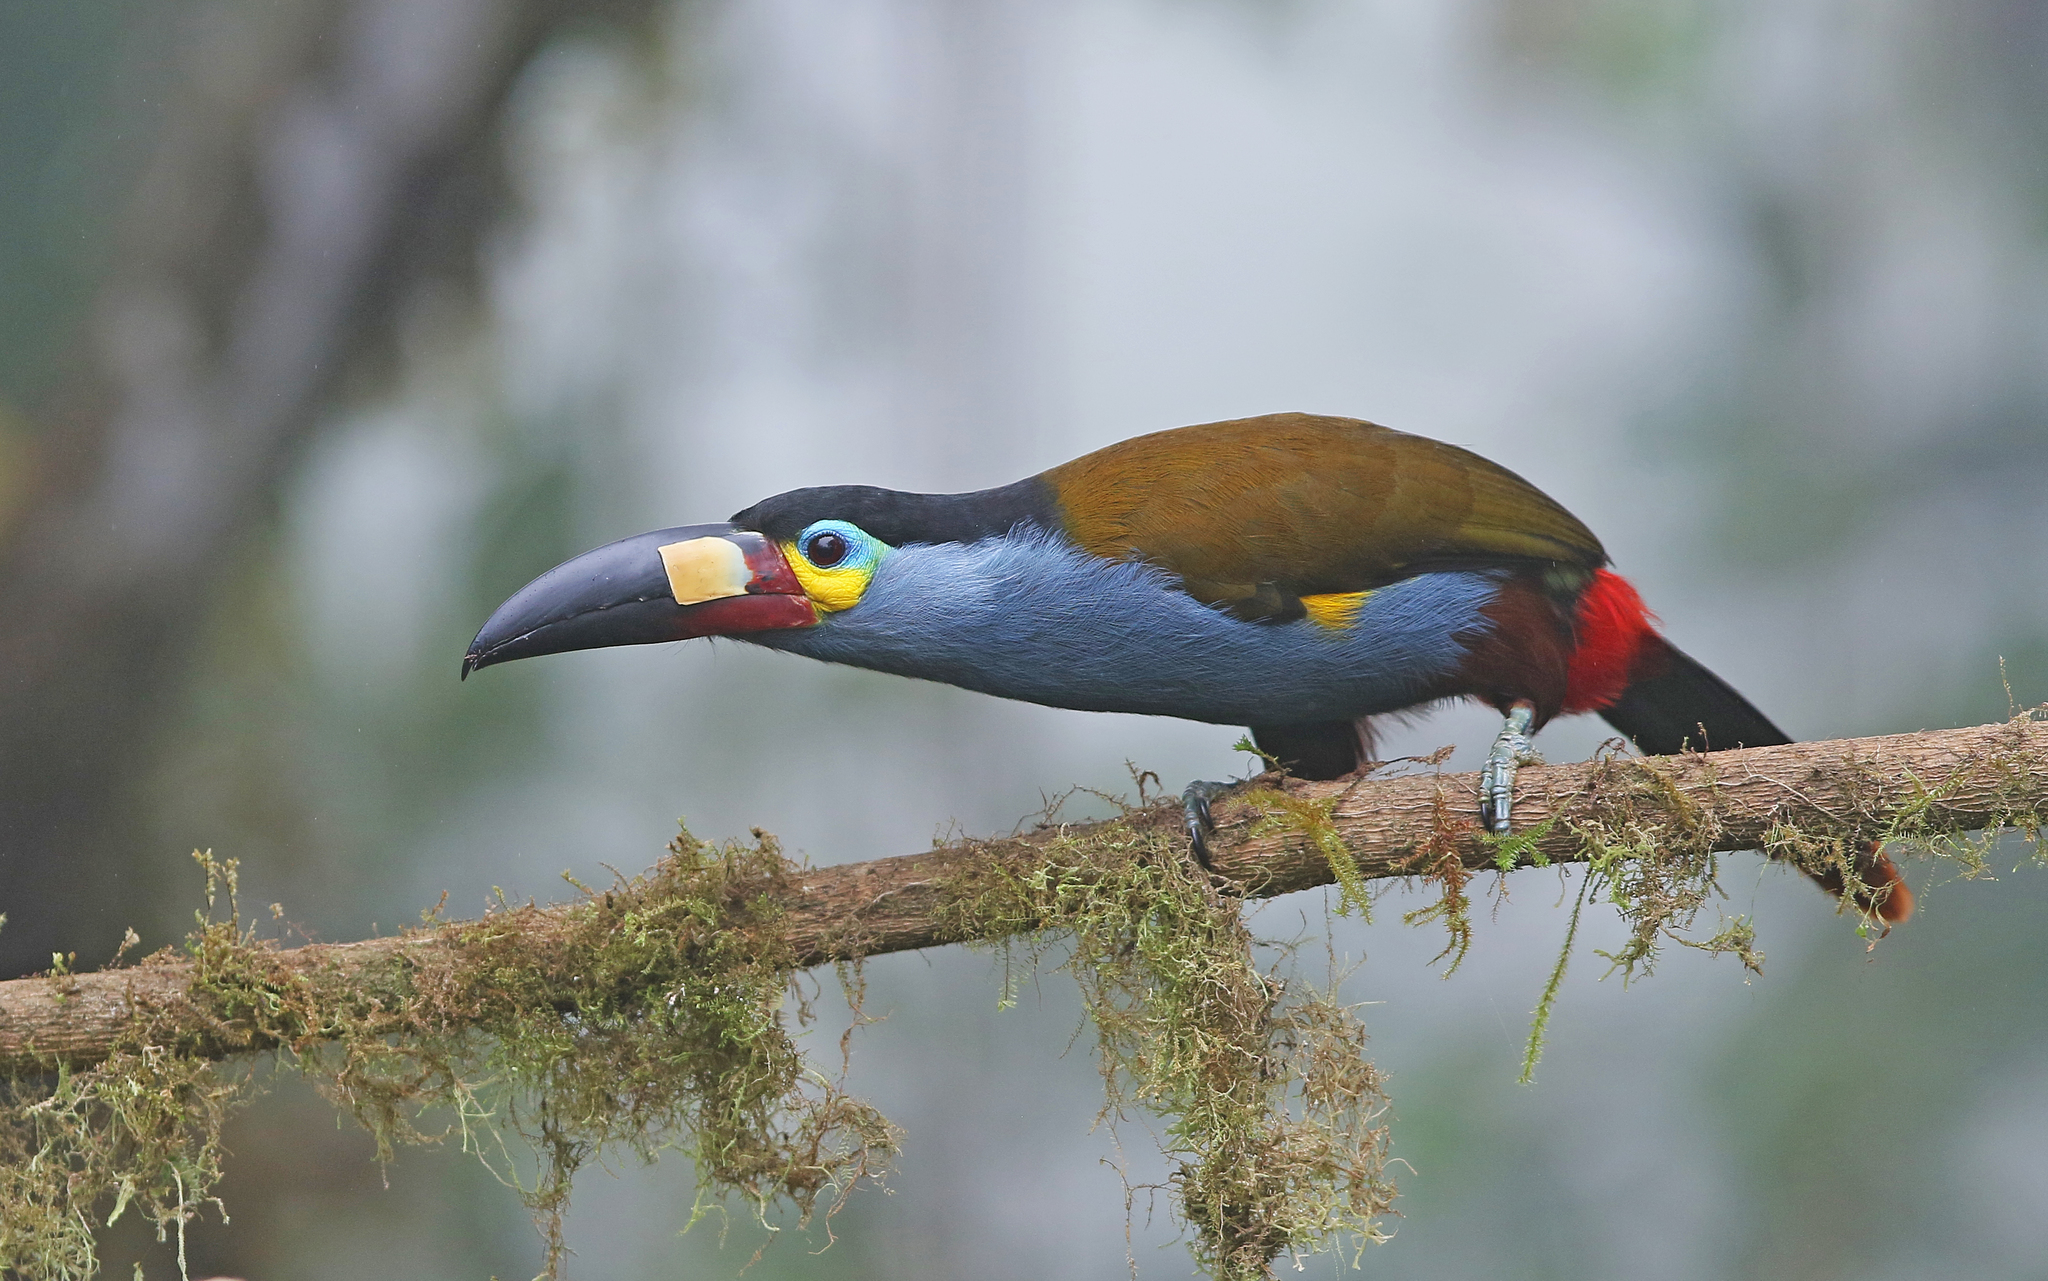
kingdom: Animalia
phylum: Chordata
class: Aves
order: Piciformes
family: Ramphastidae
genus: Andigena
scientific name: Andigena laminirostris
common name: Plate-billed mountain toucan
